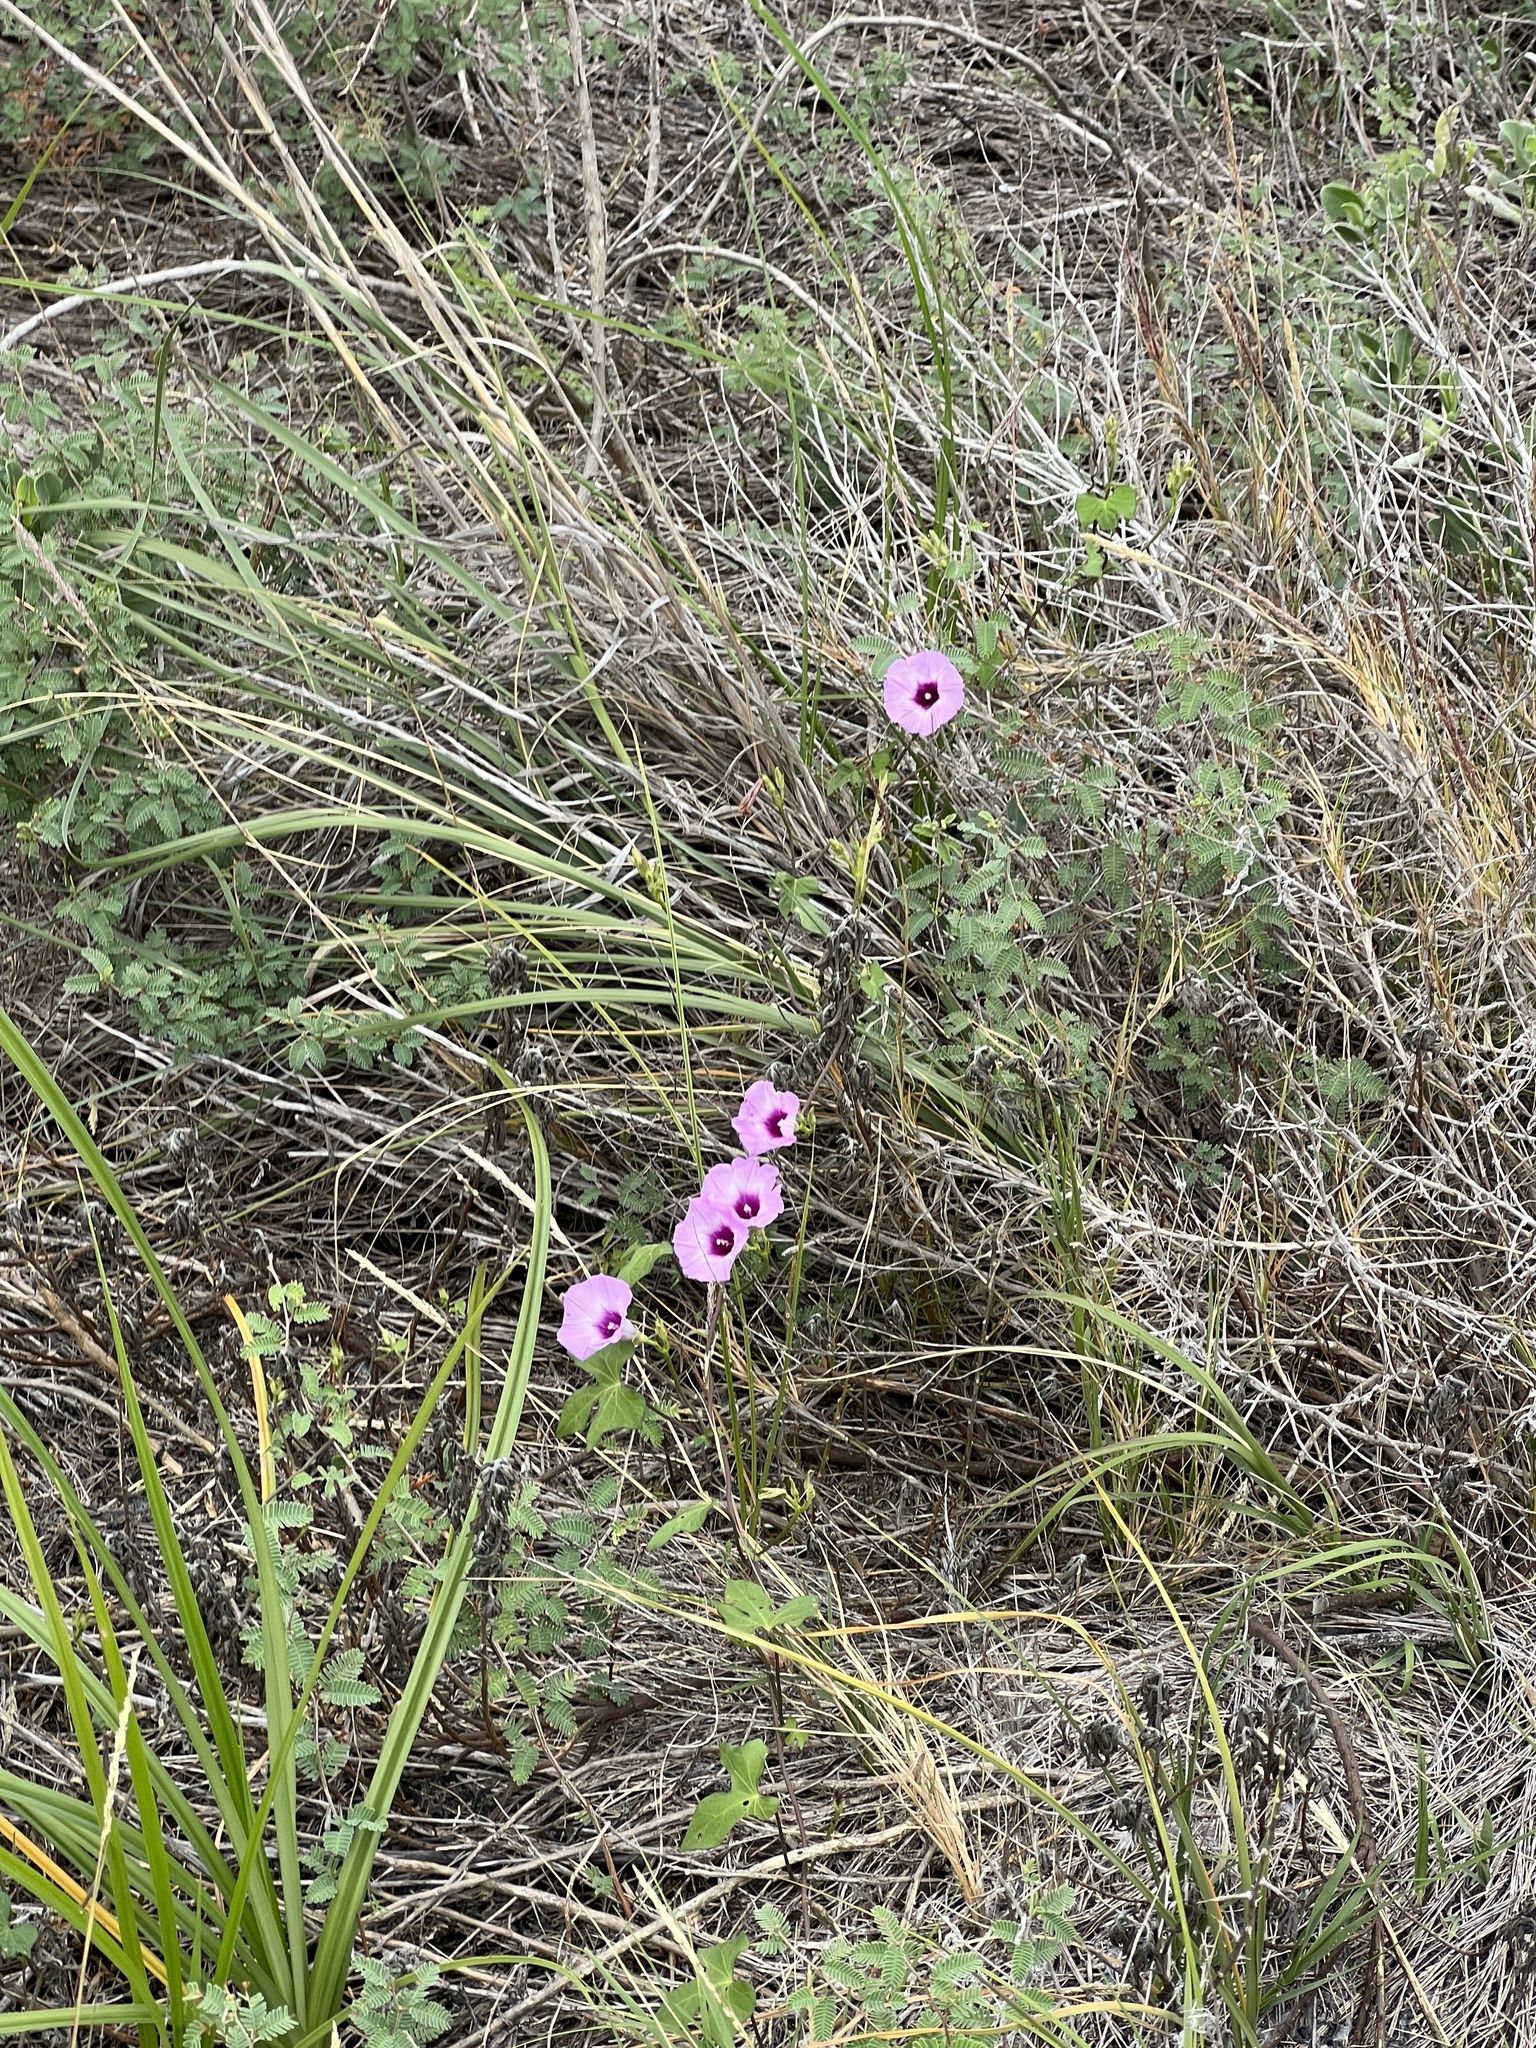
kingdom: Plantae
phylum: Tracheophyta
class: Magnoliopsida
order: Solanales
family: Convolvulaceae
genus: Ipomoea
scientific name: Ipomoea cordatotriloba
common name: Cotton morning glory
